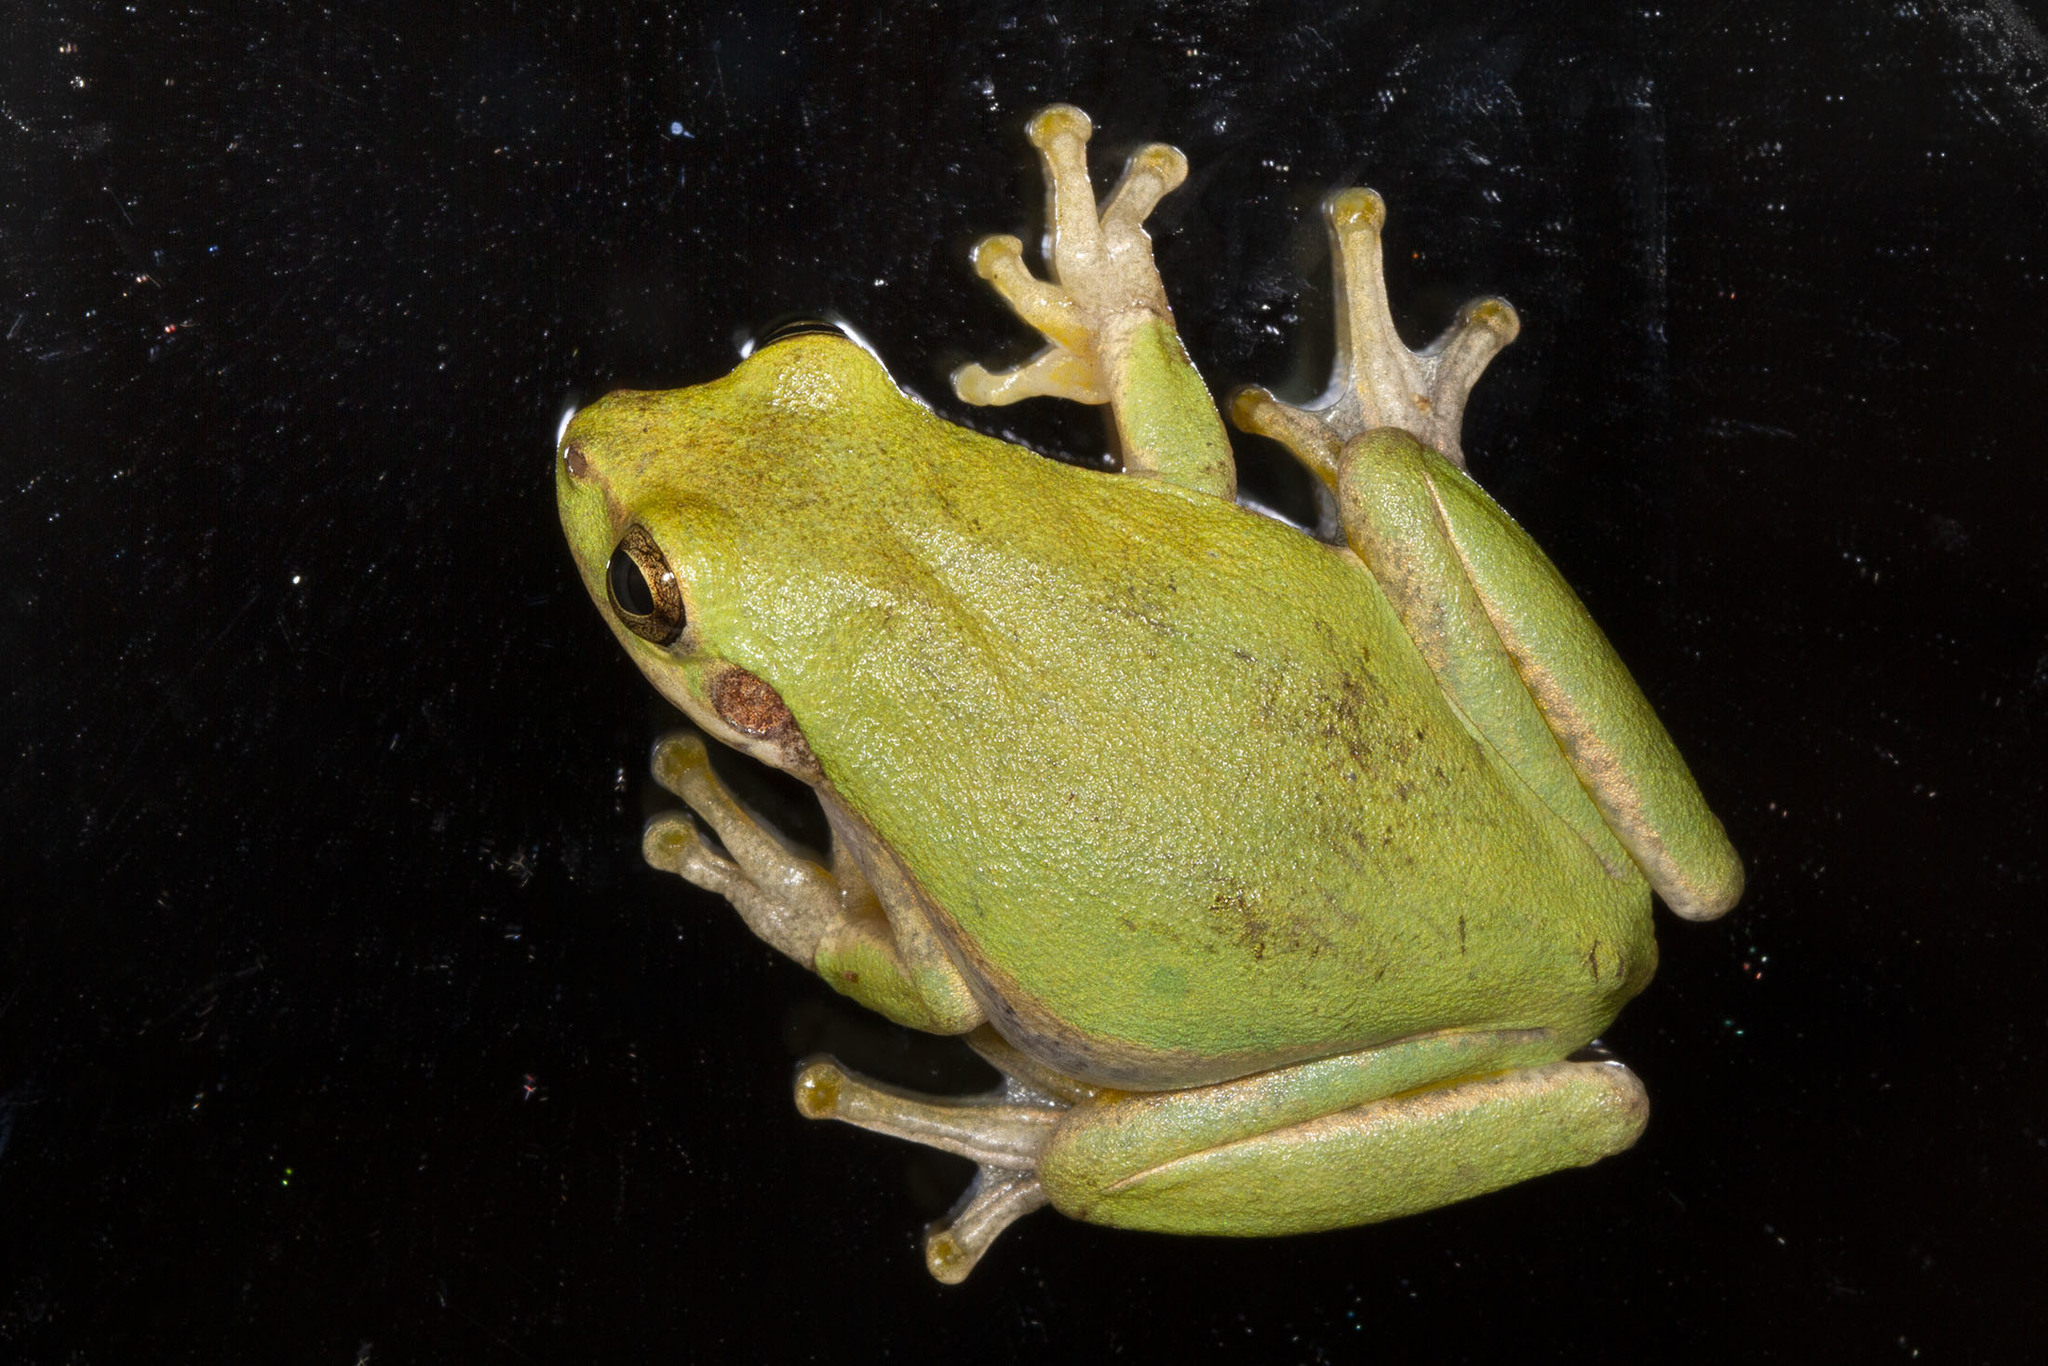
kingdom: Animalia
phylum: Chordata
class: Amphibia
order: Anura
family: Hylidae
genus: Dryophytes
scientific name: Dryophytes squirellus
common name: Squirrel treefrog
